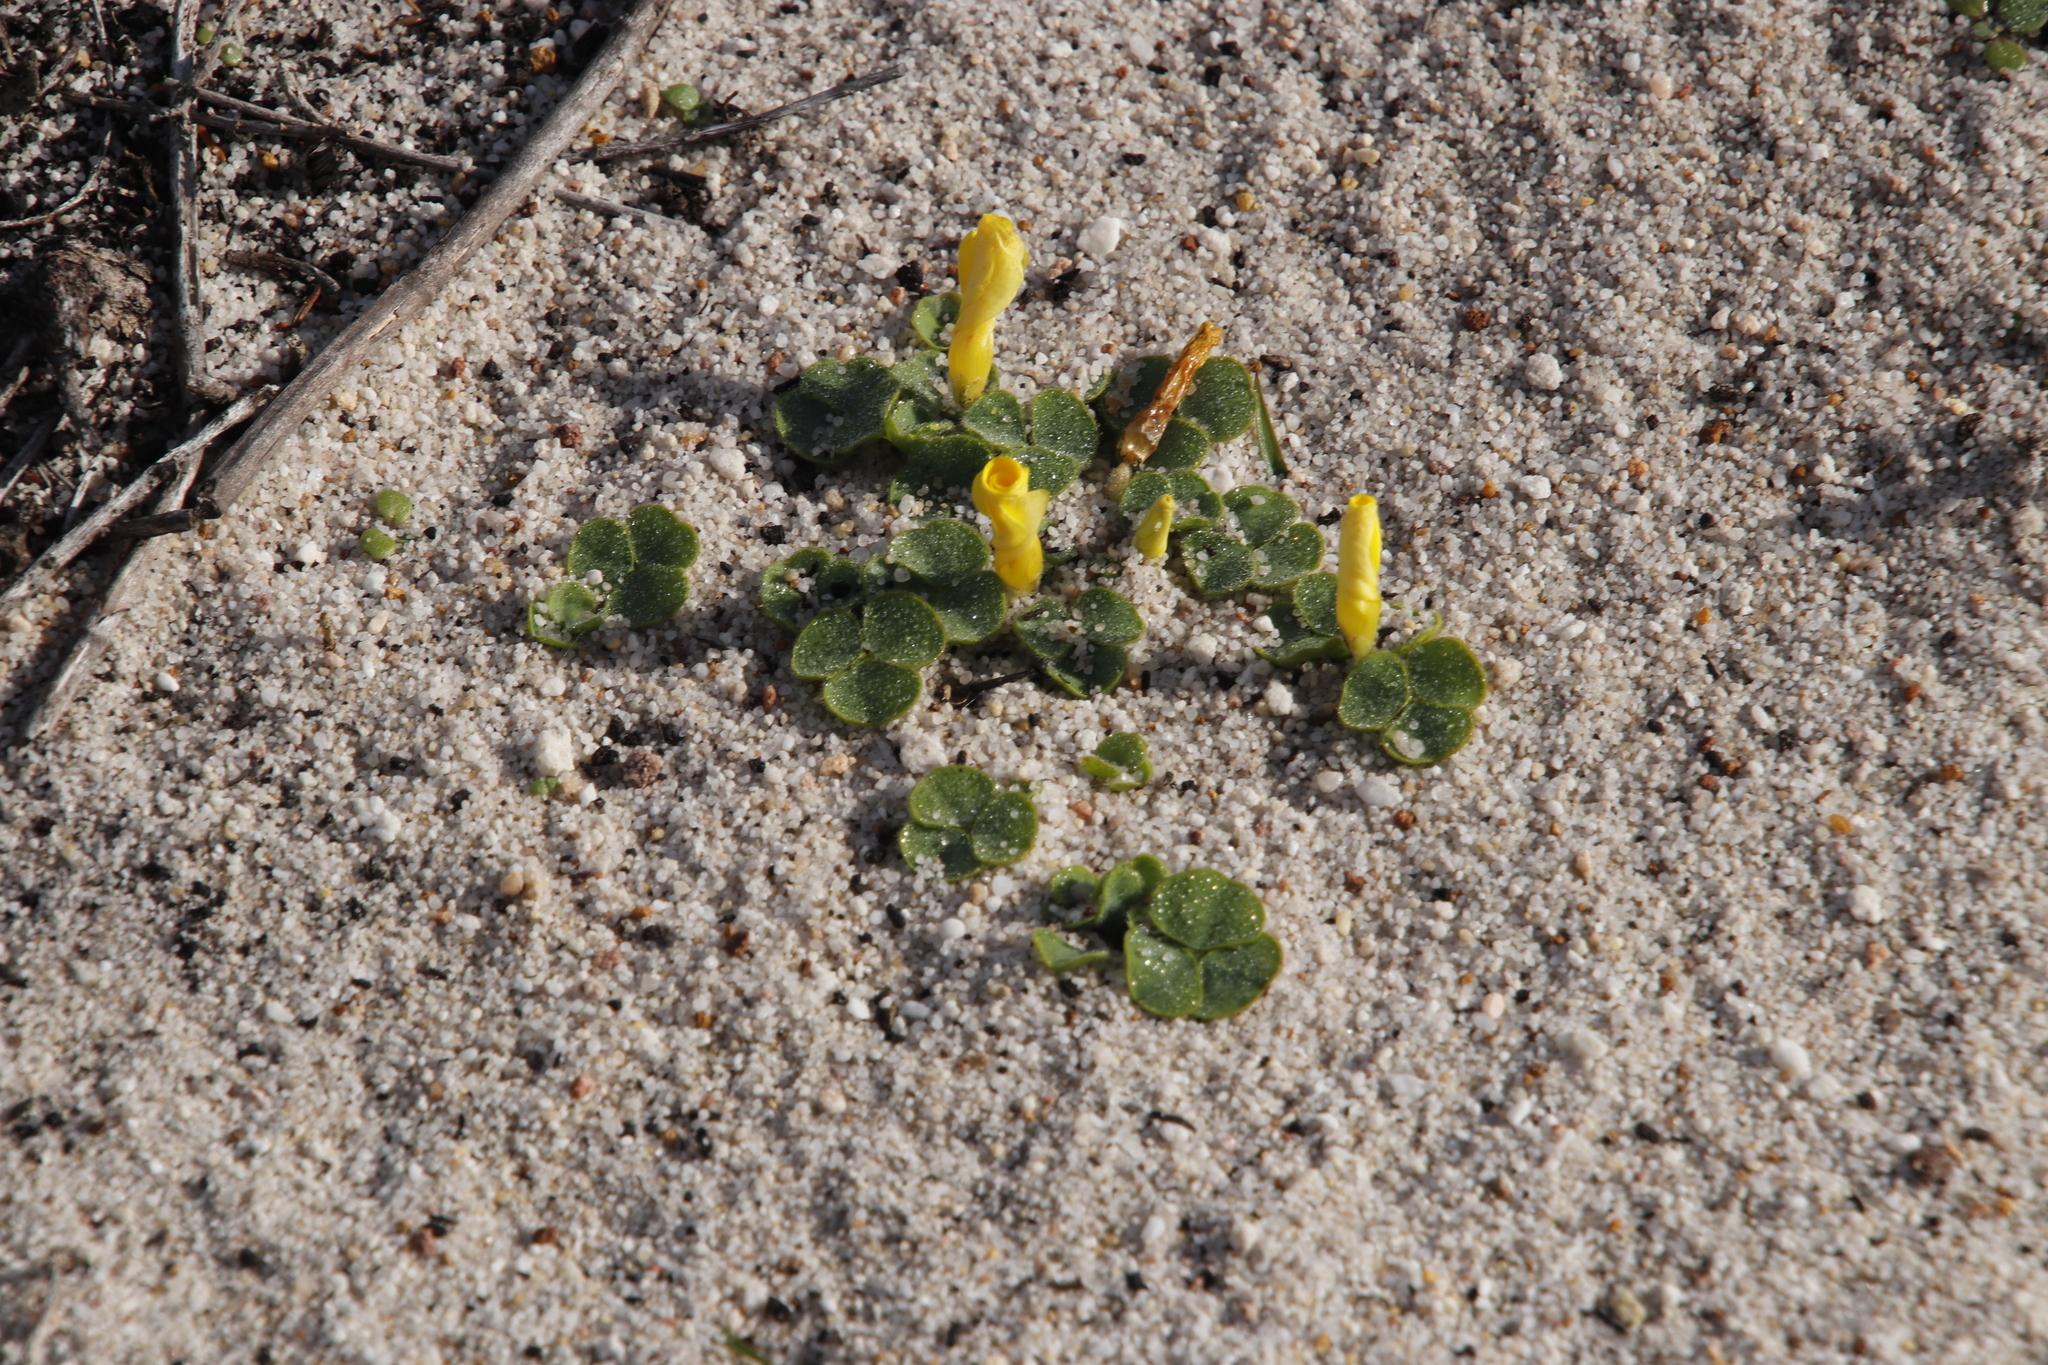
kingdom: Plantae
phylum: Tracheophyta
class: Magnoliopsida
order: Oxalidales
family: Oxalidaceae
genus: Oxalis
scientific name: Oxalis luteola
